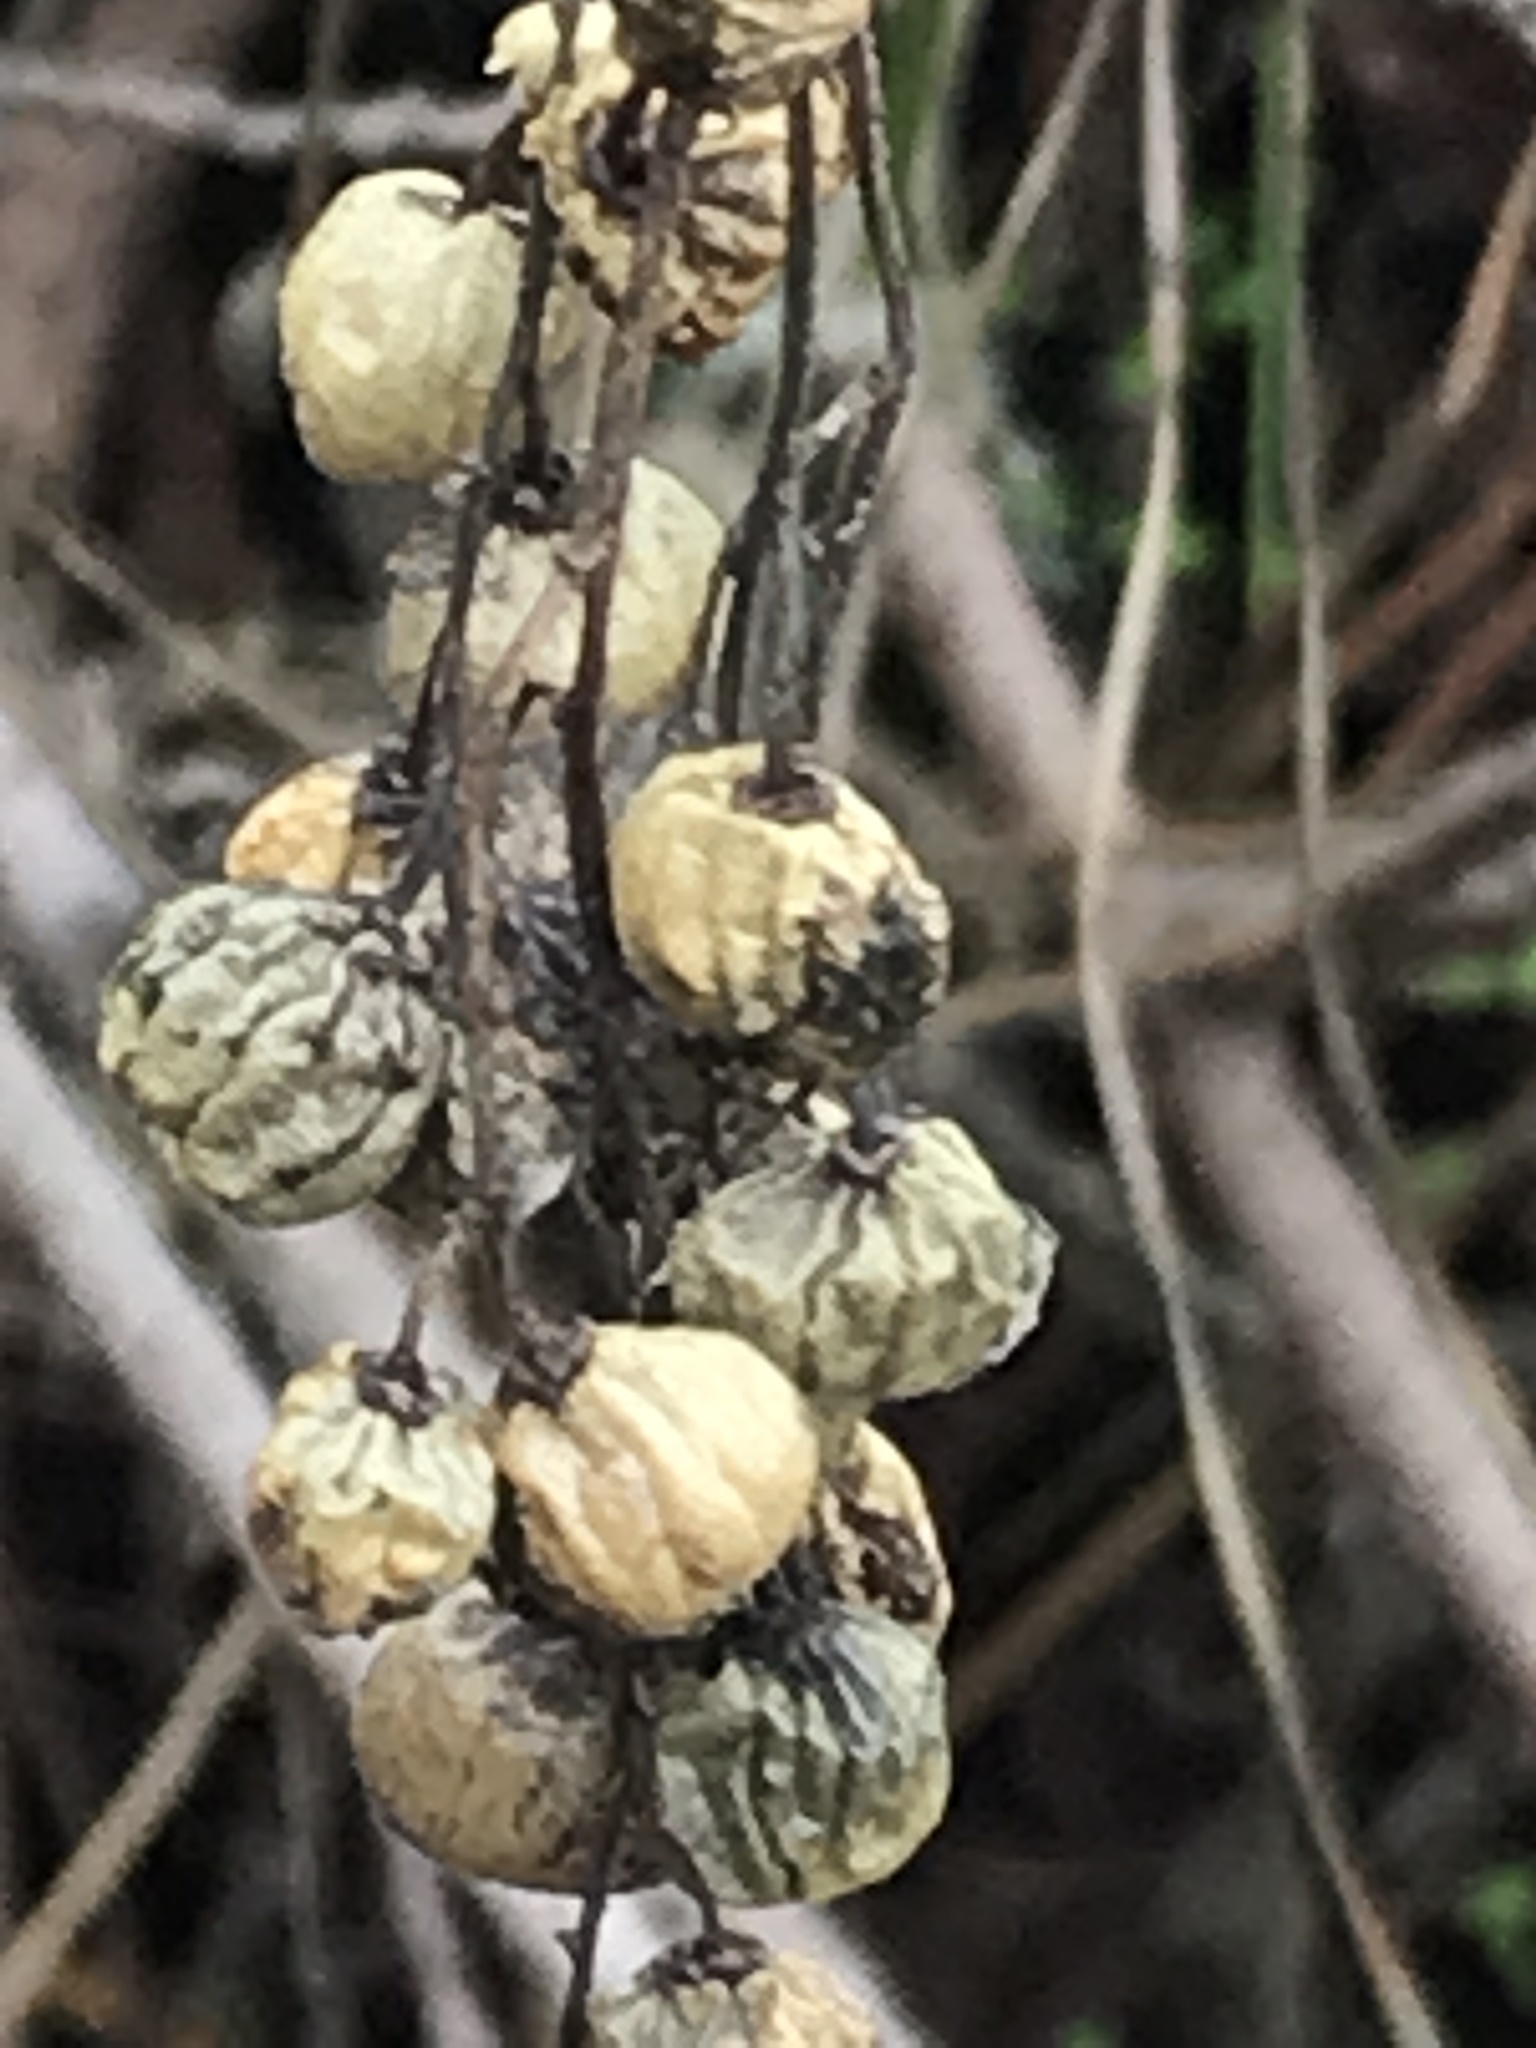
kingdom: Plantae
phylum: Tracheophyta
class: Magnoliopsida
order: Sapindales
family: Anacardiaceae
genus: Toxicodendron
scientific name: Toxicodendron diversilobum
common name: Pacific poison-oak
